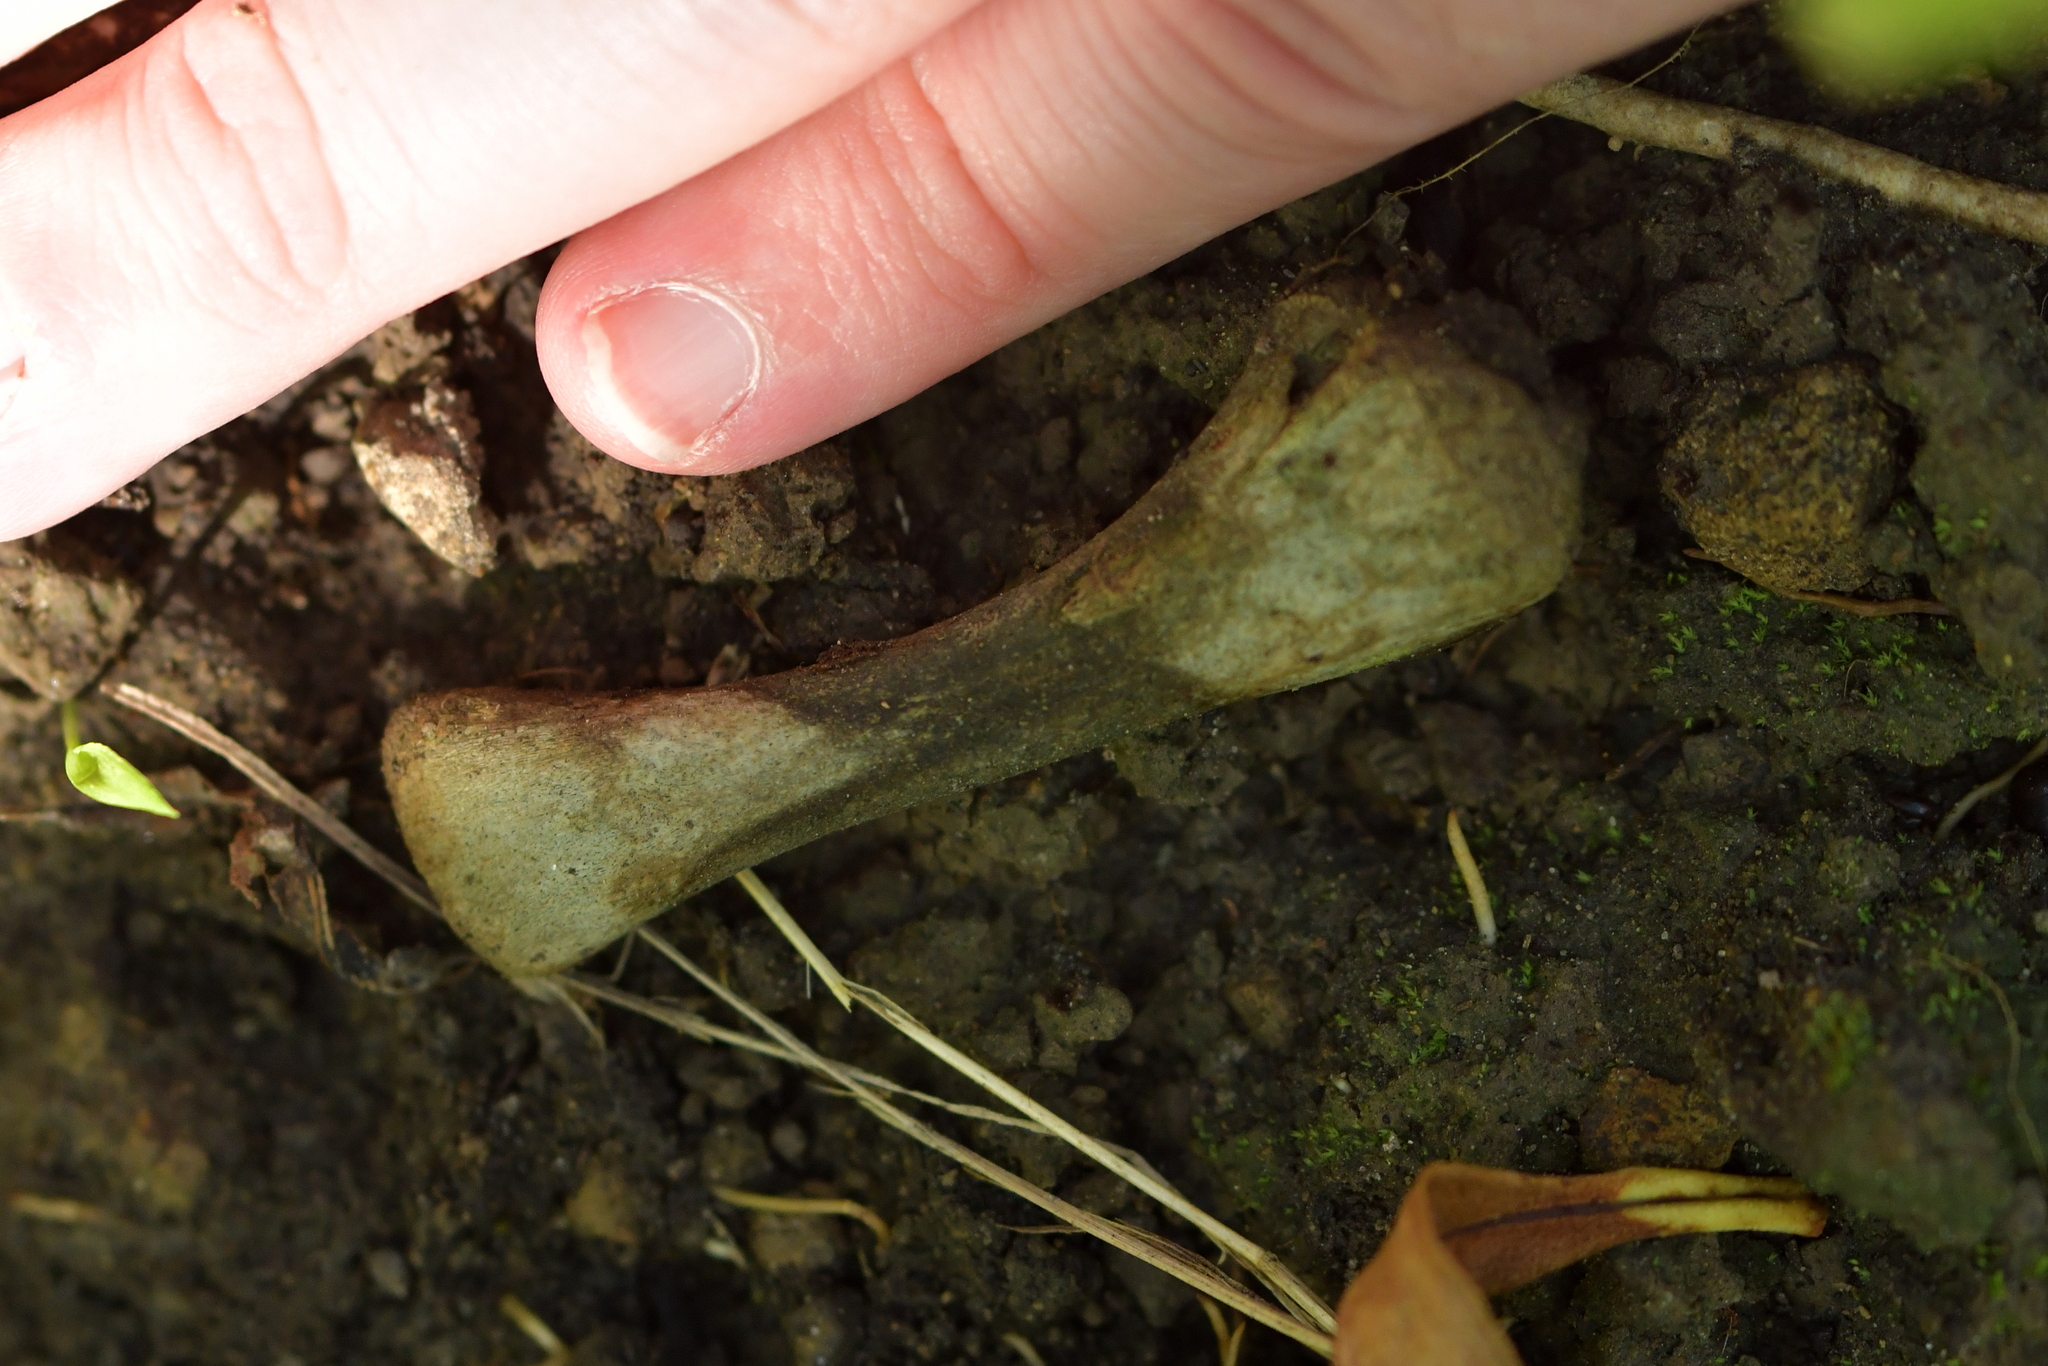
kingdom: Animalia
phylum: Chordata
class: Aves
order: Galliformes
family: Phasianidae
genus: Gallus
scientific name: Gallus gallus
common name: Red junglefowl
